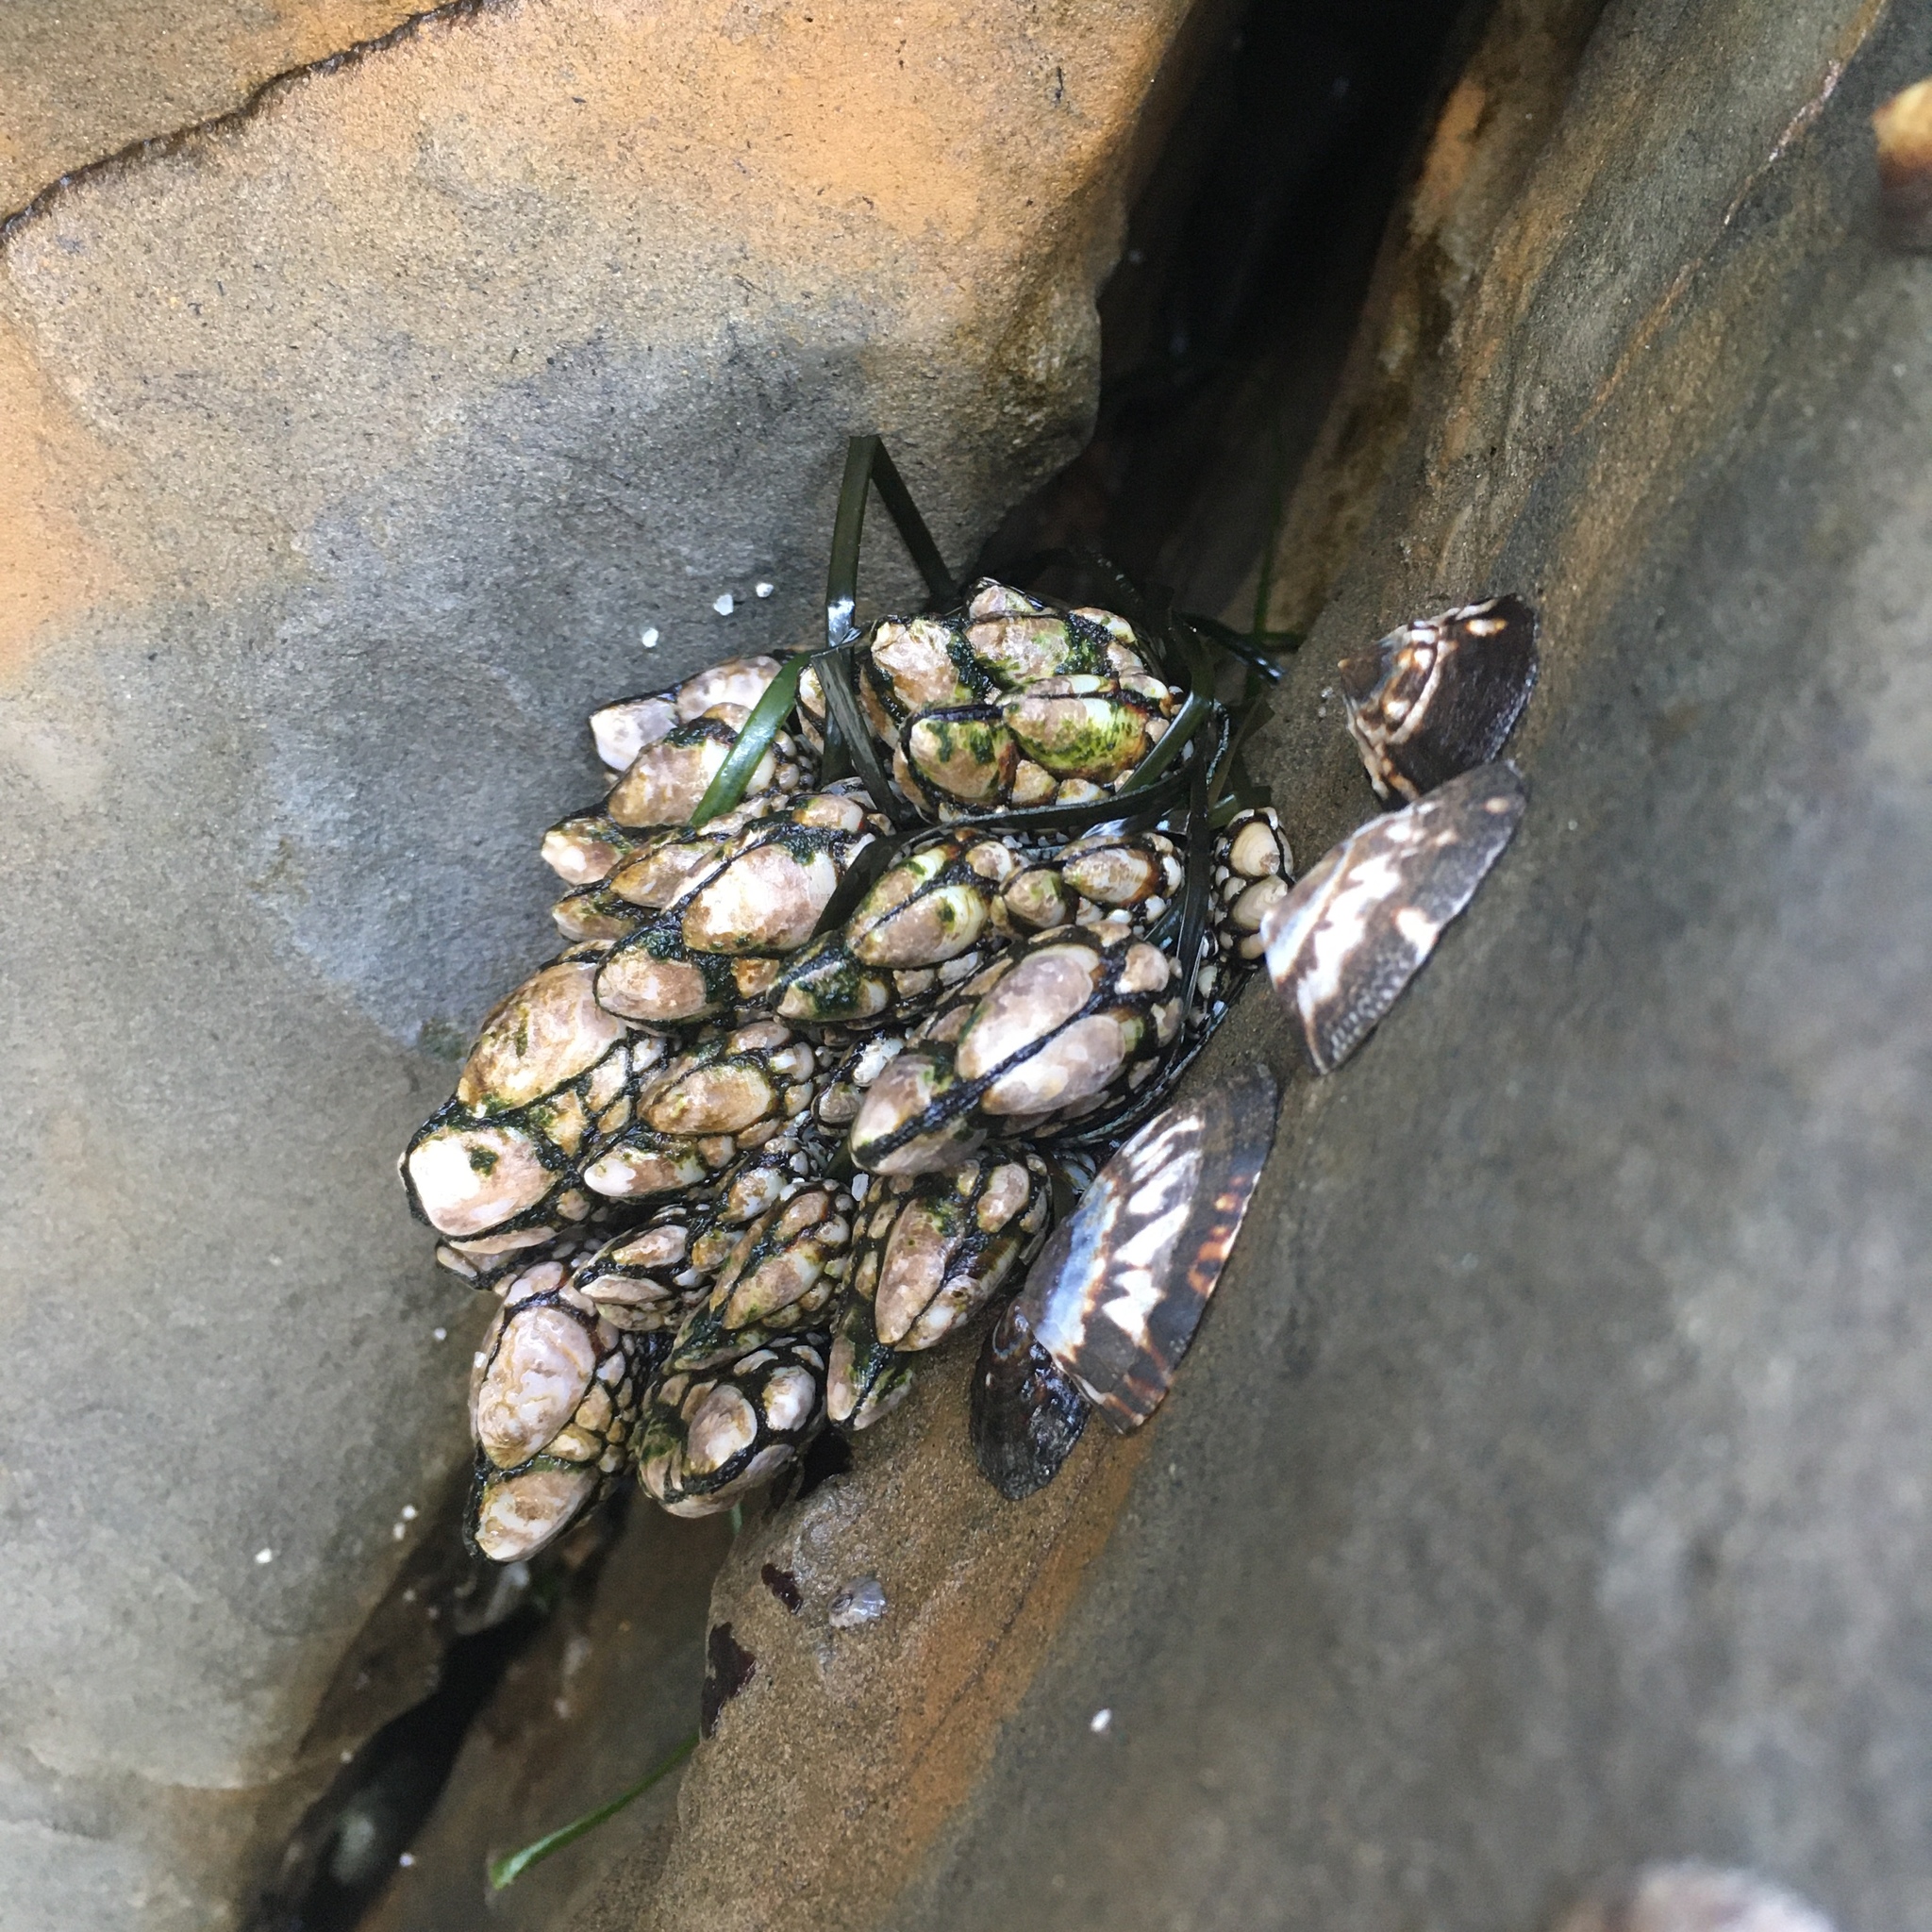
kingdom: Animalia
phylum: Arthropoda
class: Maxillopoda
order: Pedunculata
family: Pollicipedidae
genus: Pollicipes
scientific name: Pollicipes polymerus
